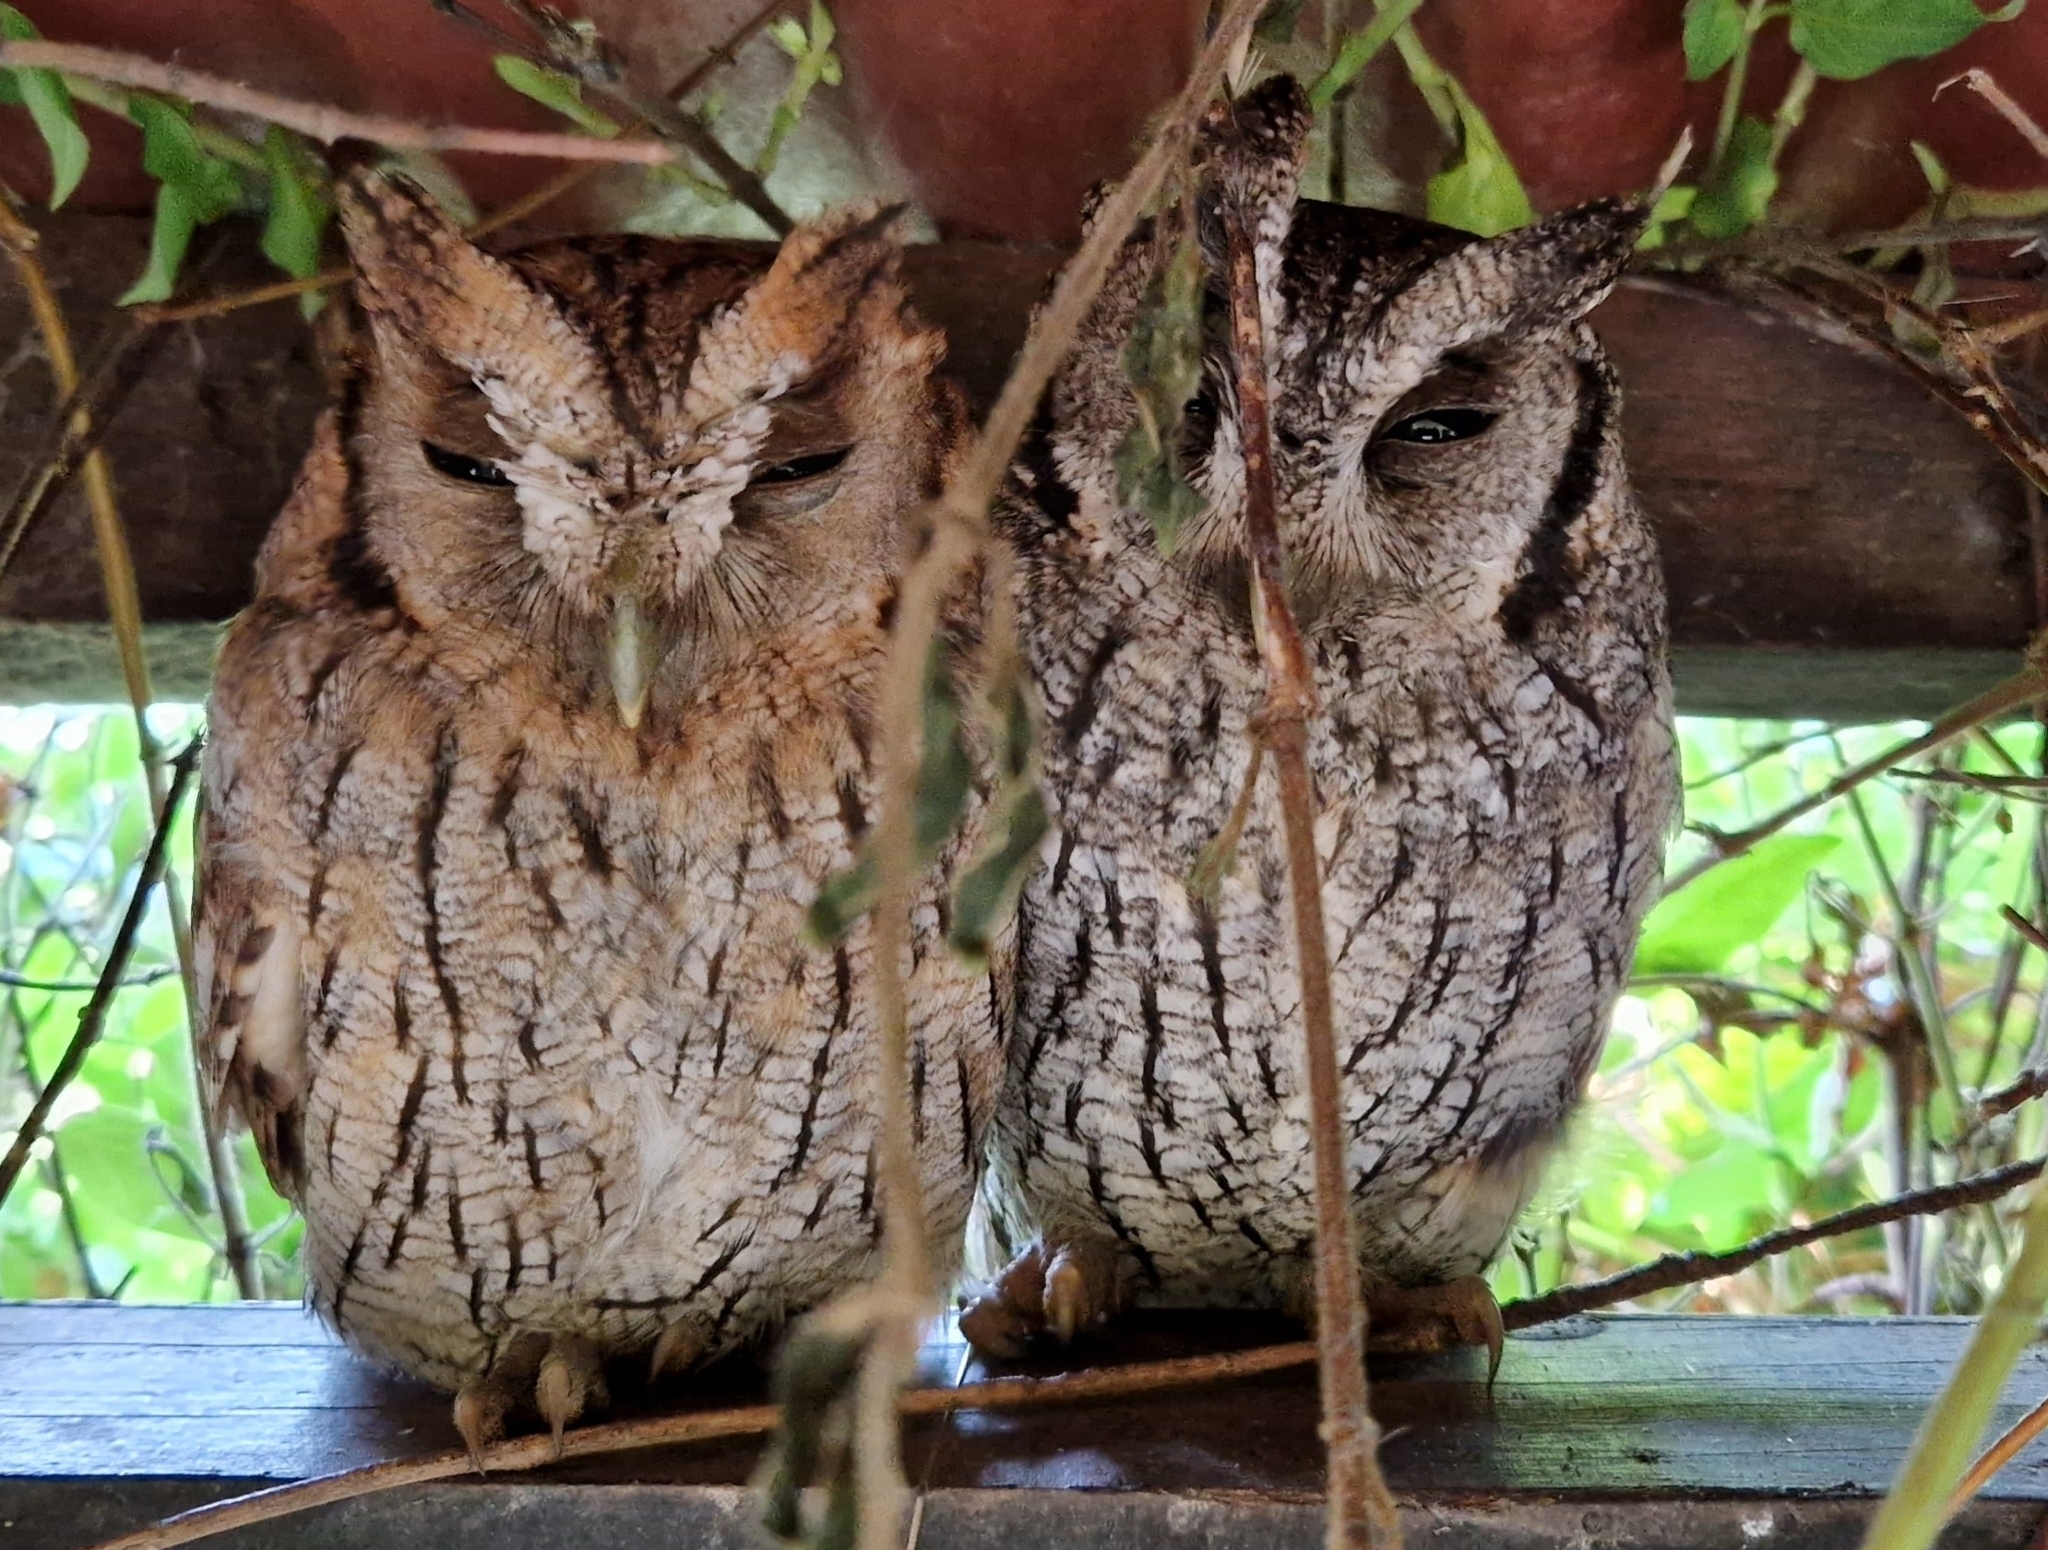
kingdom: Animalia
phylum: Chordata
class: Aves
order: Strigiformes
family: Strigidae
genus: Megascops
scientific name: Megascops choliba
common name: Tropical screech-owl
